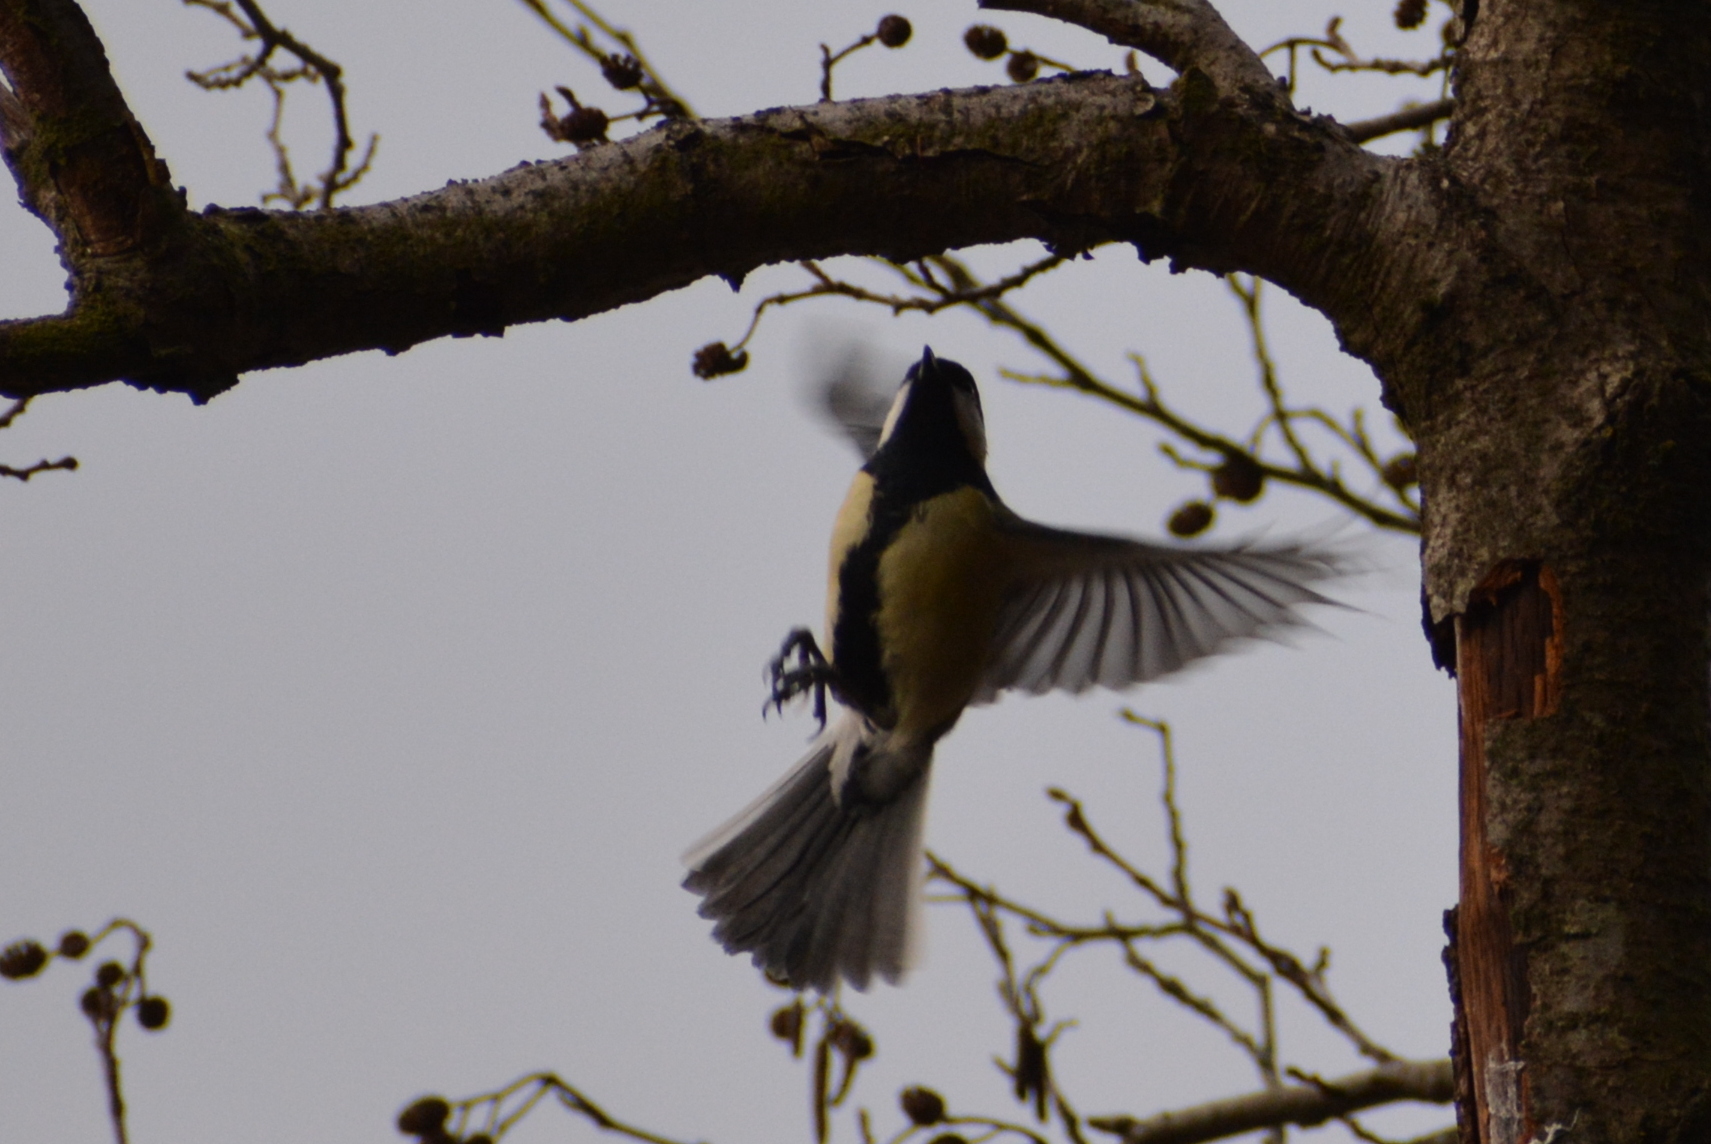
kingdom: Animalia
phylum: Chordata
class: Aves
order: Passeriformes
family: Paridae
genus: Parus
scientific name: Parus major
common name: Great tit
